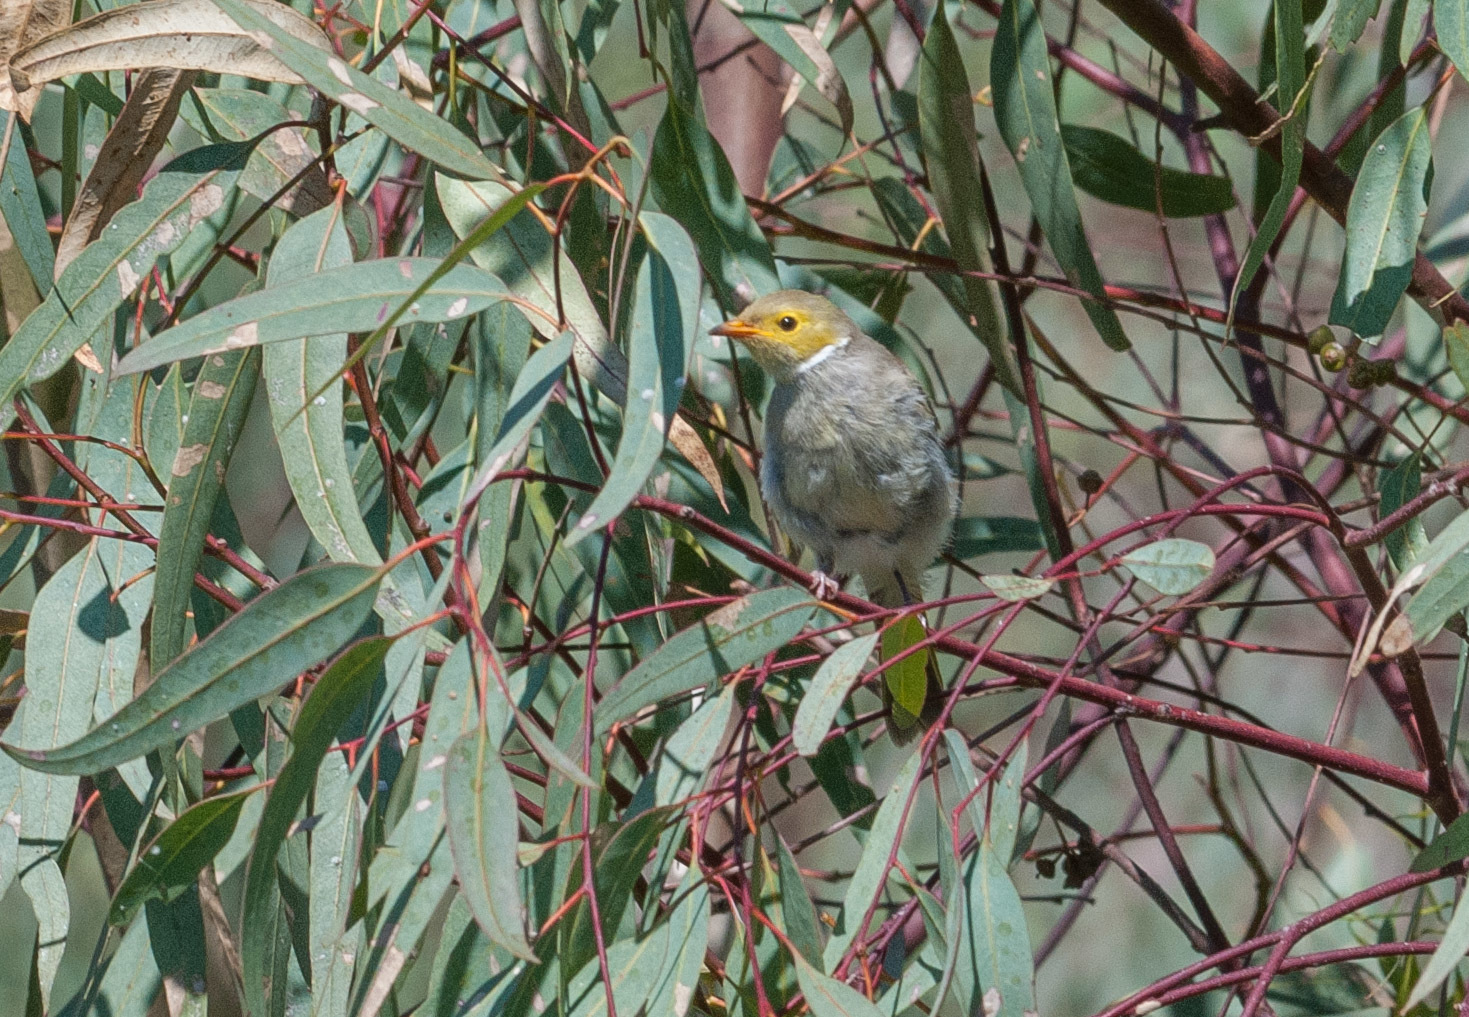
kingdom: Animalia
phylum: Chordata
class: Aves
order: Passeriformes
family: Meliphagidae
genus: Ptilotula
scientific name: Ptilotula penicillata
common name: White-plumed honeyeater
